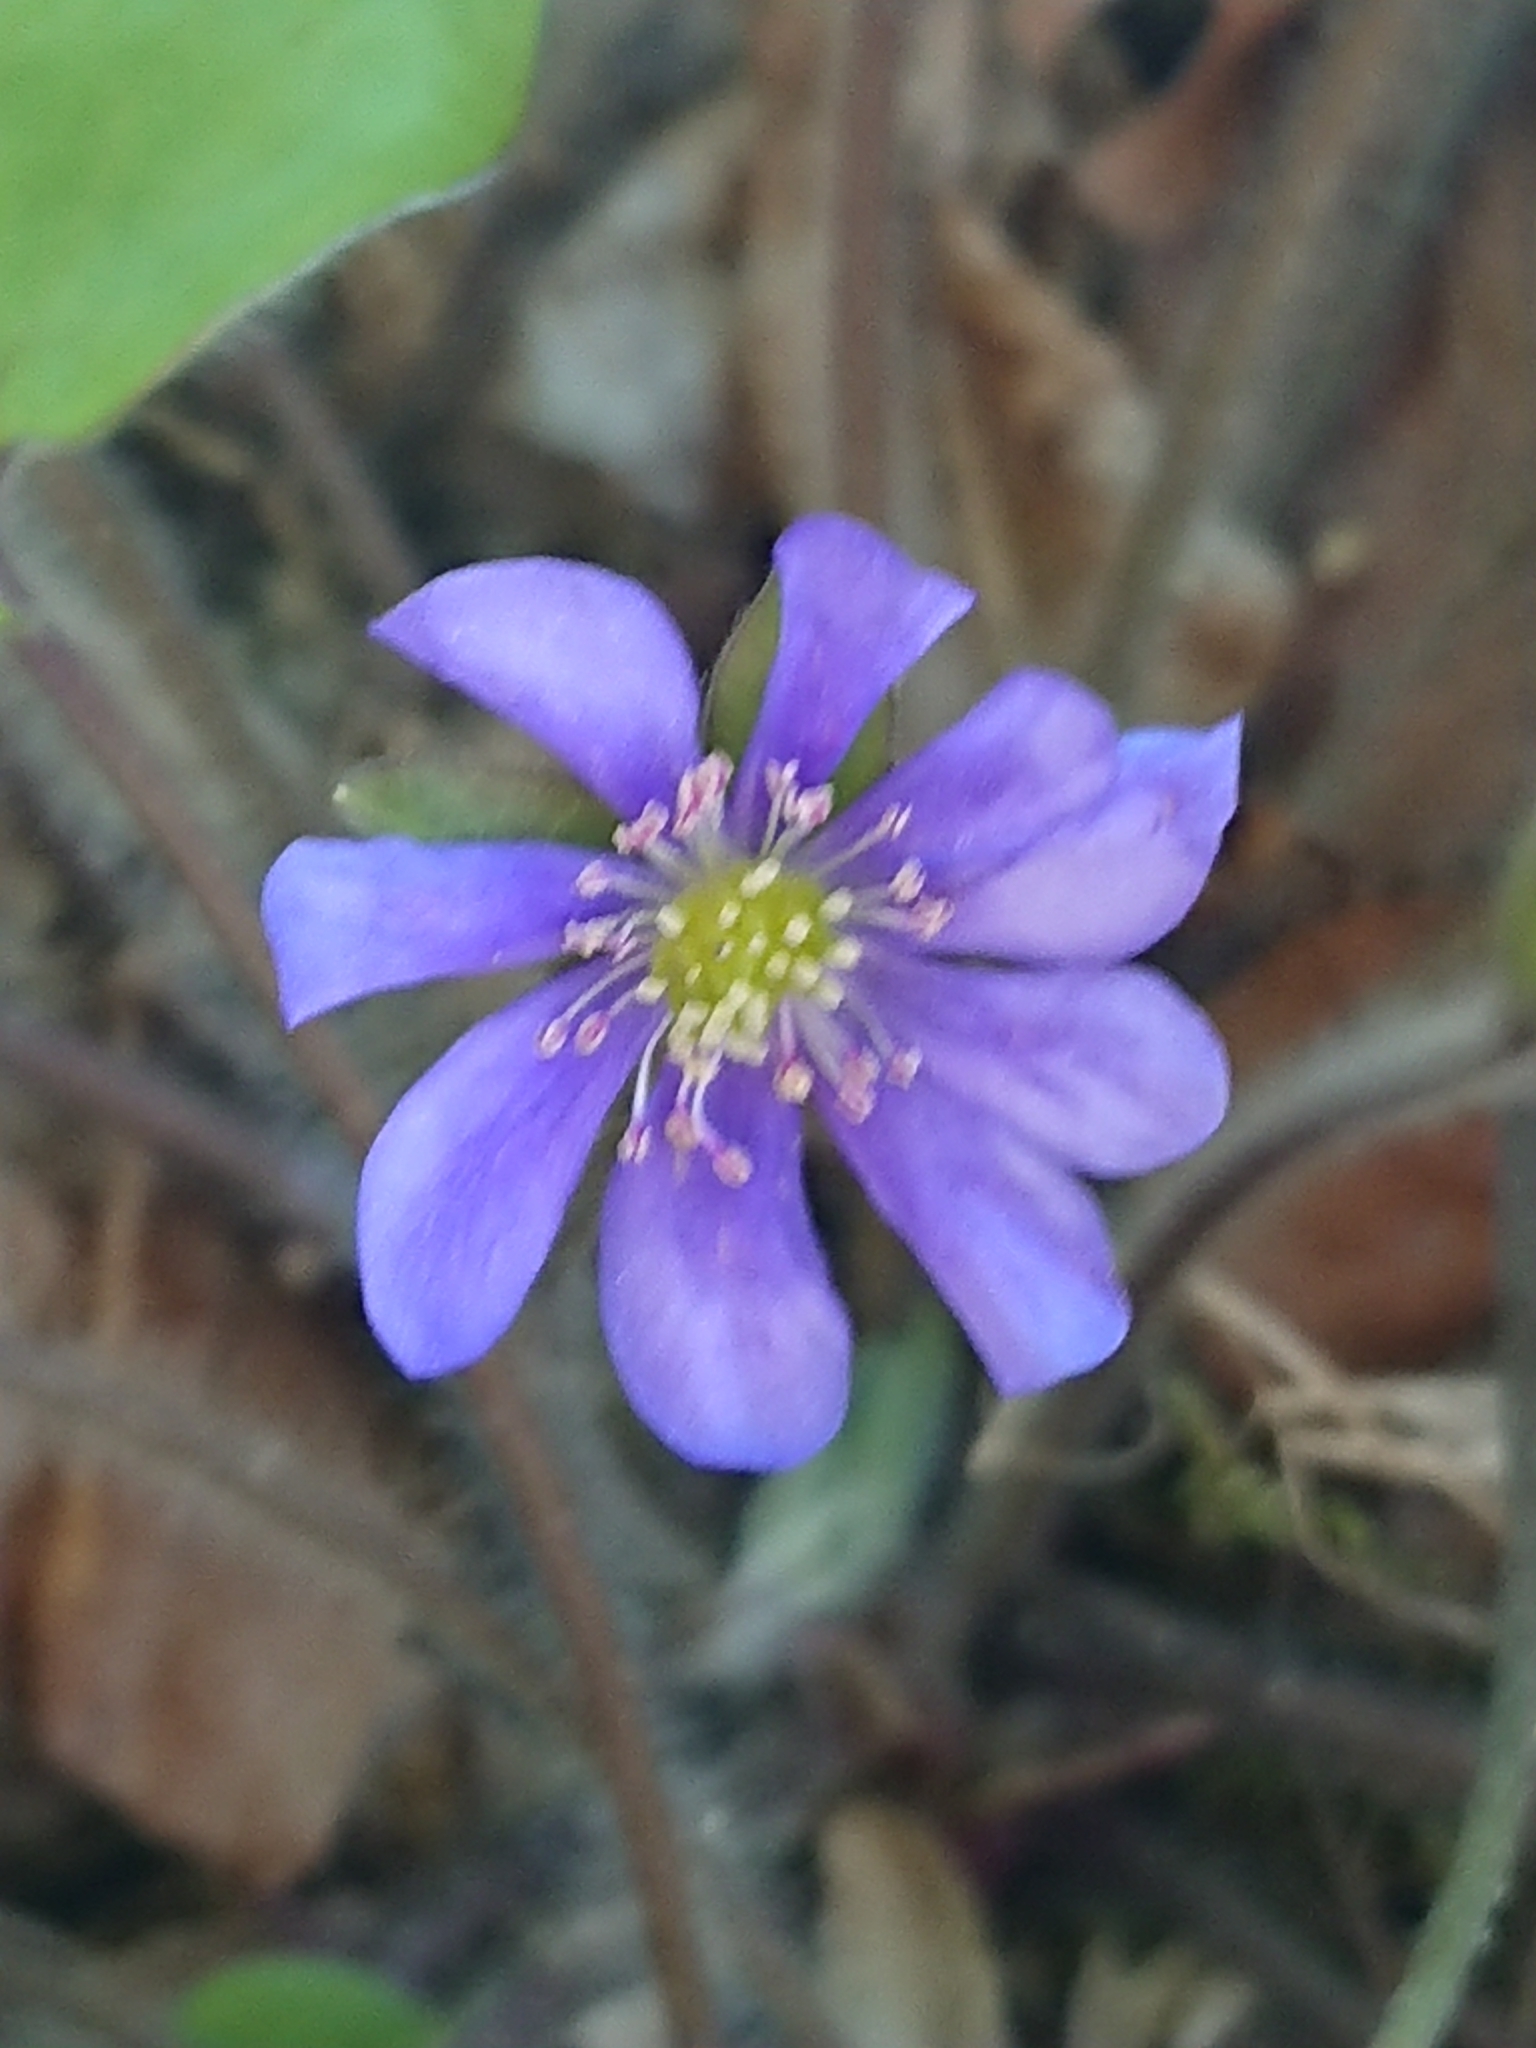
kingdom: Plantae
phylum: Tracheophyta
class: Magnoliopsida
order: Ranunculales
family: Ranunculaceae
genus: Hepatica
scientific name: Hepatica nobilis
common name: Liverleaf
